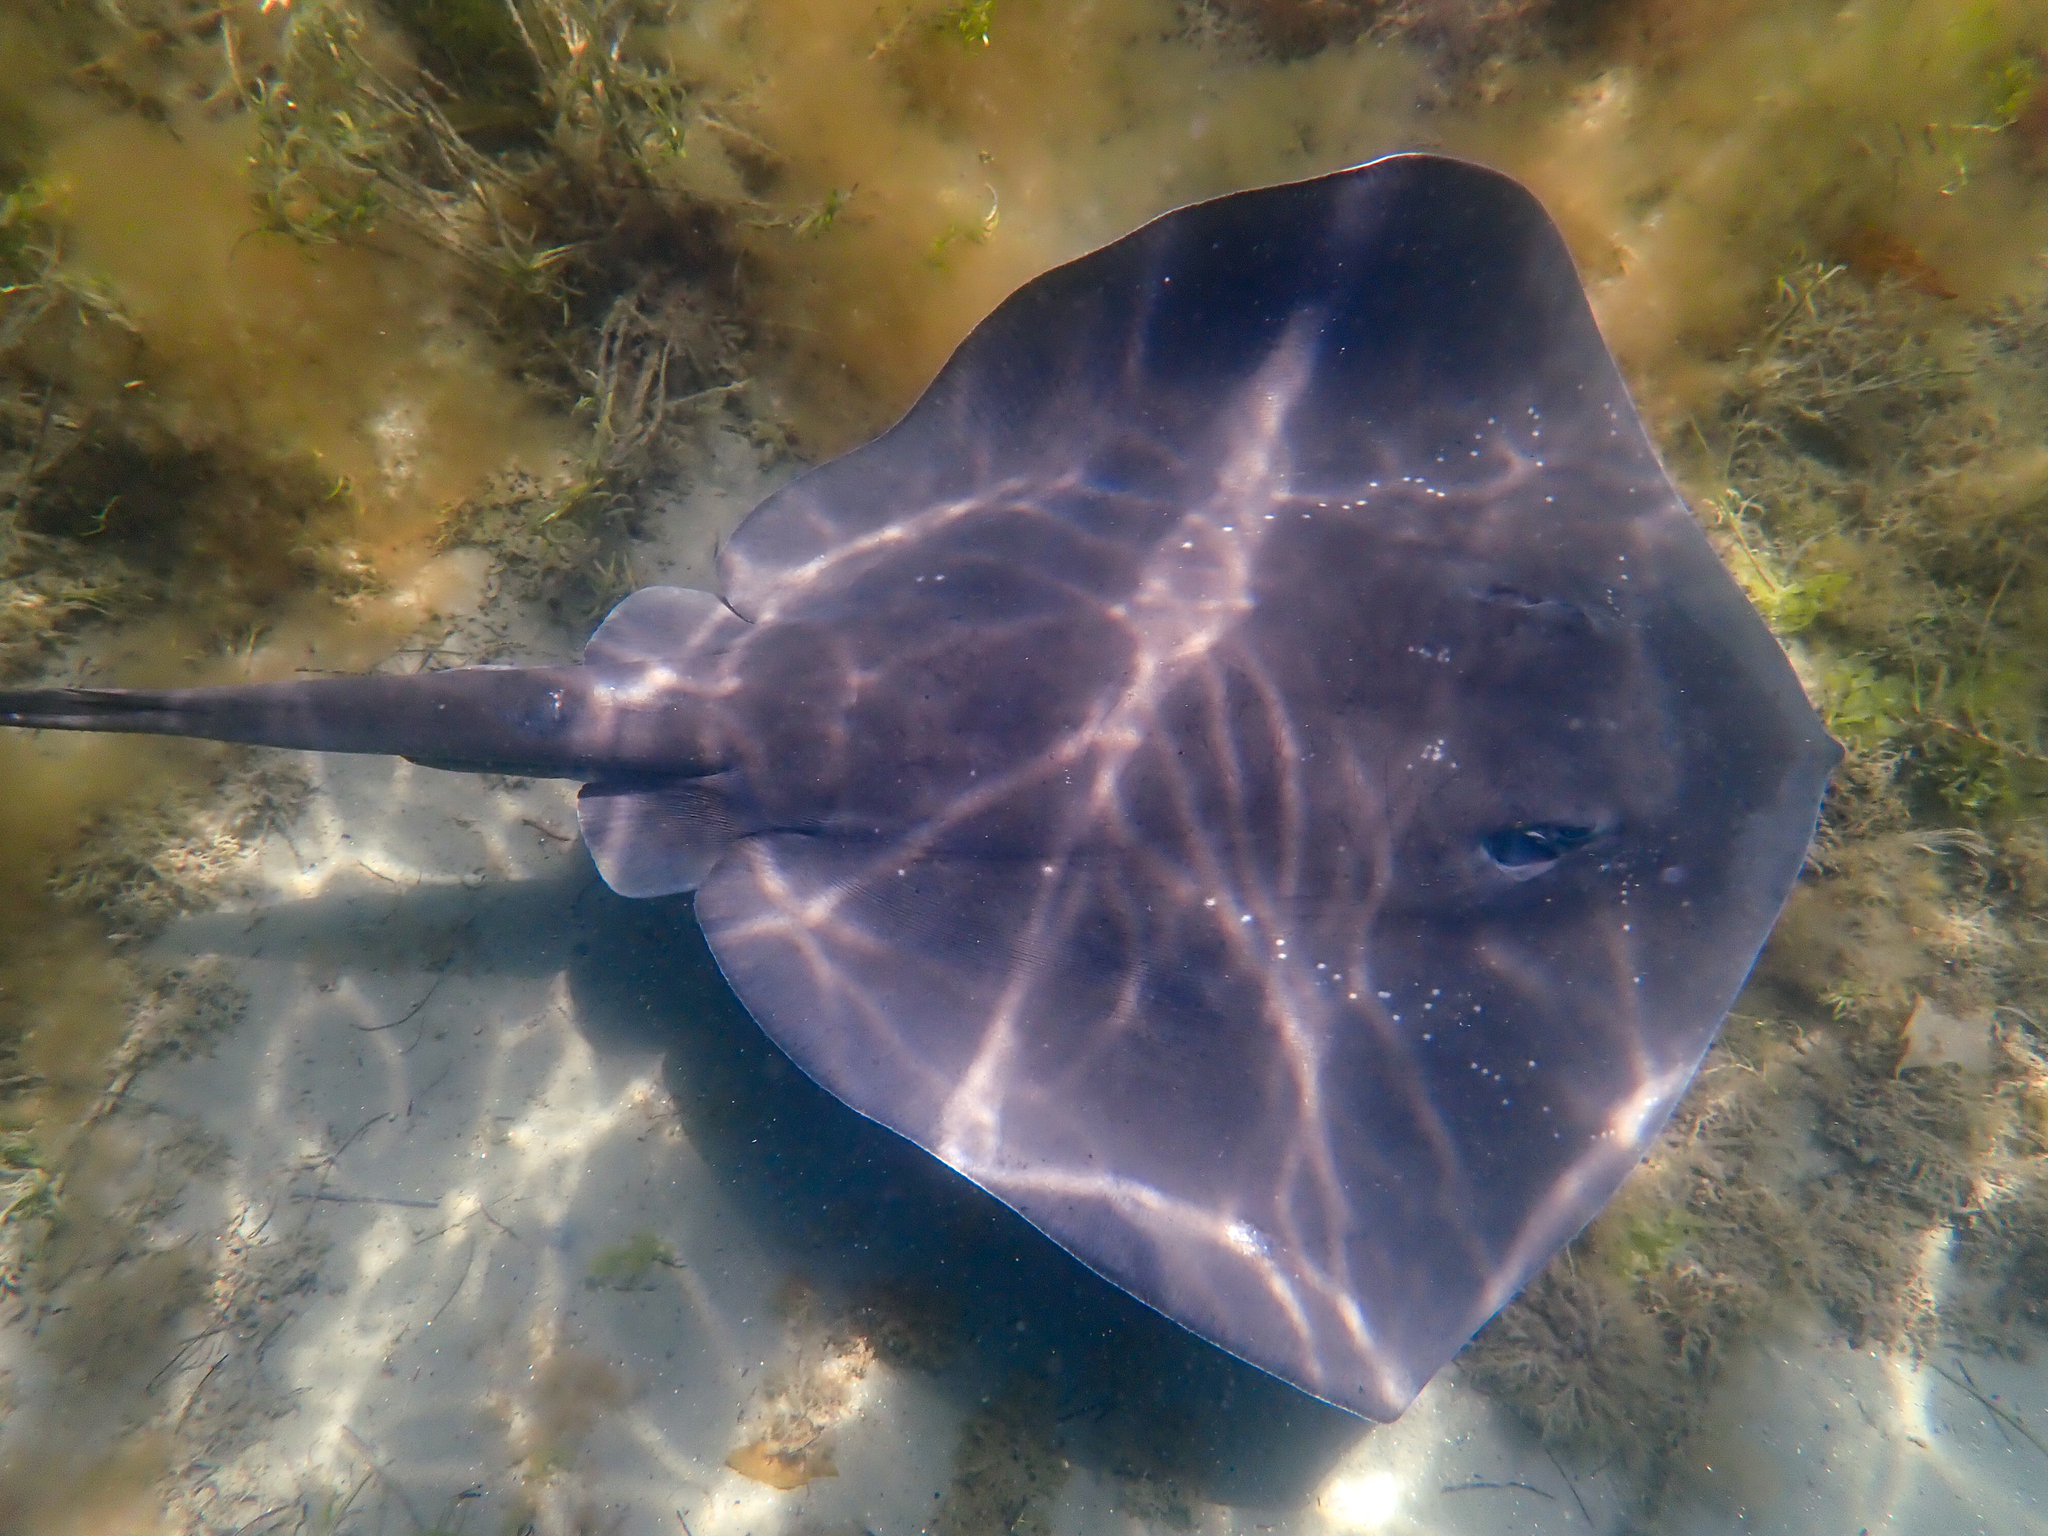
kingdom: Animalia
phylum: Chordata
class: Elasmobranchii
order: Myliobatiformes
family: Dasyatidae
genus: Bathytoshia
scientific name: Bathytoshia brevicaudata
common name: Short-tail stingray
